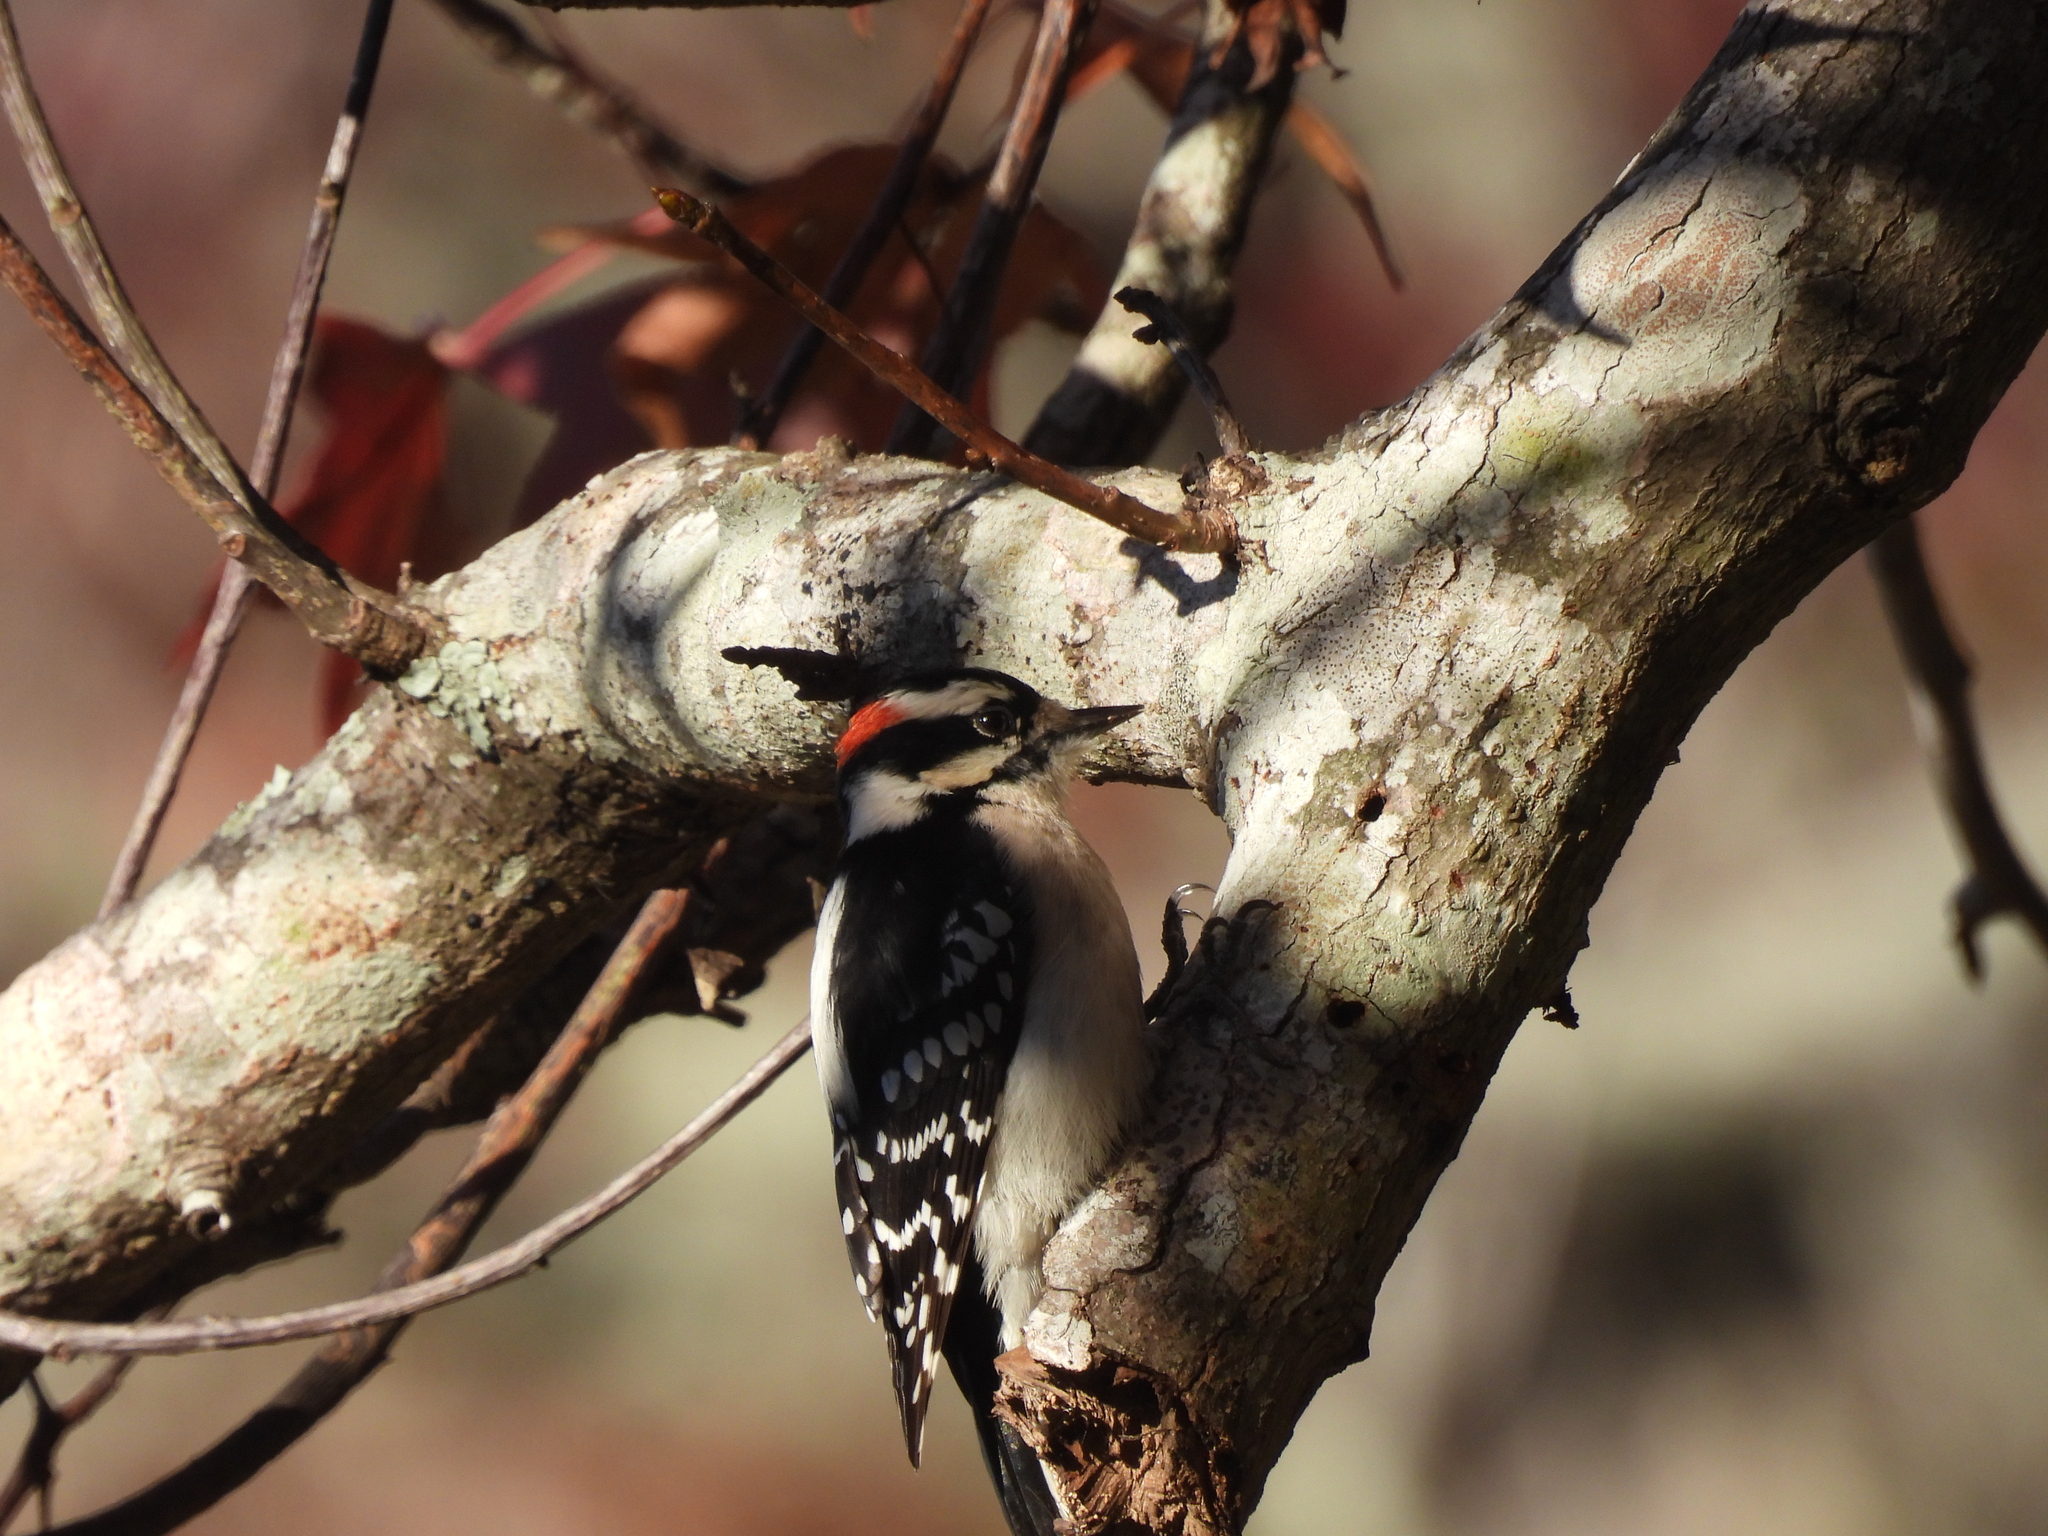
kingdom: Animalia
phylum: Chordata
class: Aves
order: Piciformes
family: Picidae
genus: Dryobates
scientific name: Dryobates pubescens
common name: Downy woodpecker
